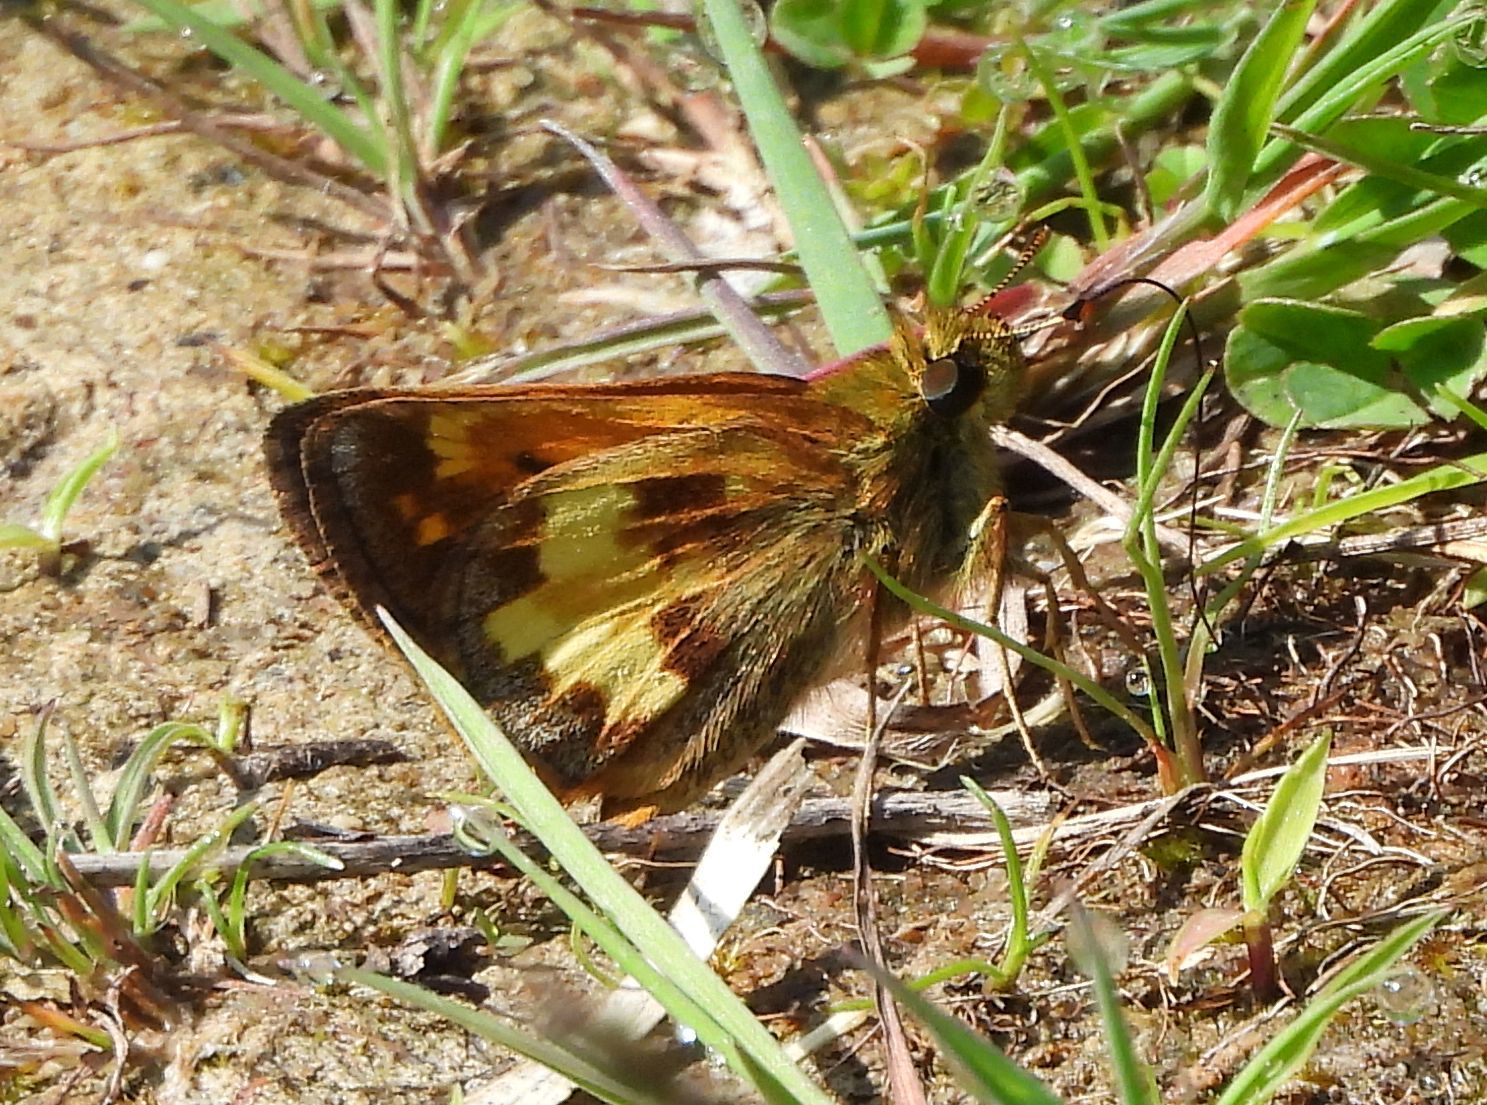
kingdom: Animalia
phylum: Arthropoda
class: Insecta
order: Lepidoptera
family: Hesperiidae
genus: Lon
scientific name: Lon hobomok
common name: Hobomok skipper
